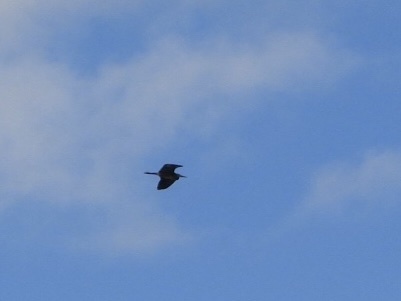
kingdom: Animalia
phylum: Chordata
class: Aves
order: Pelecaniformes
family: Ardeidae
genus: Ardea
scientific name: Ardea herodias
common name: Great blue heron
